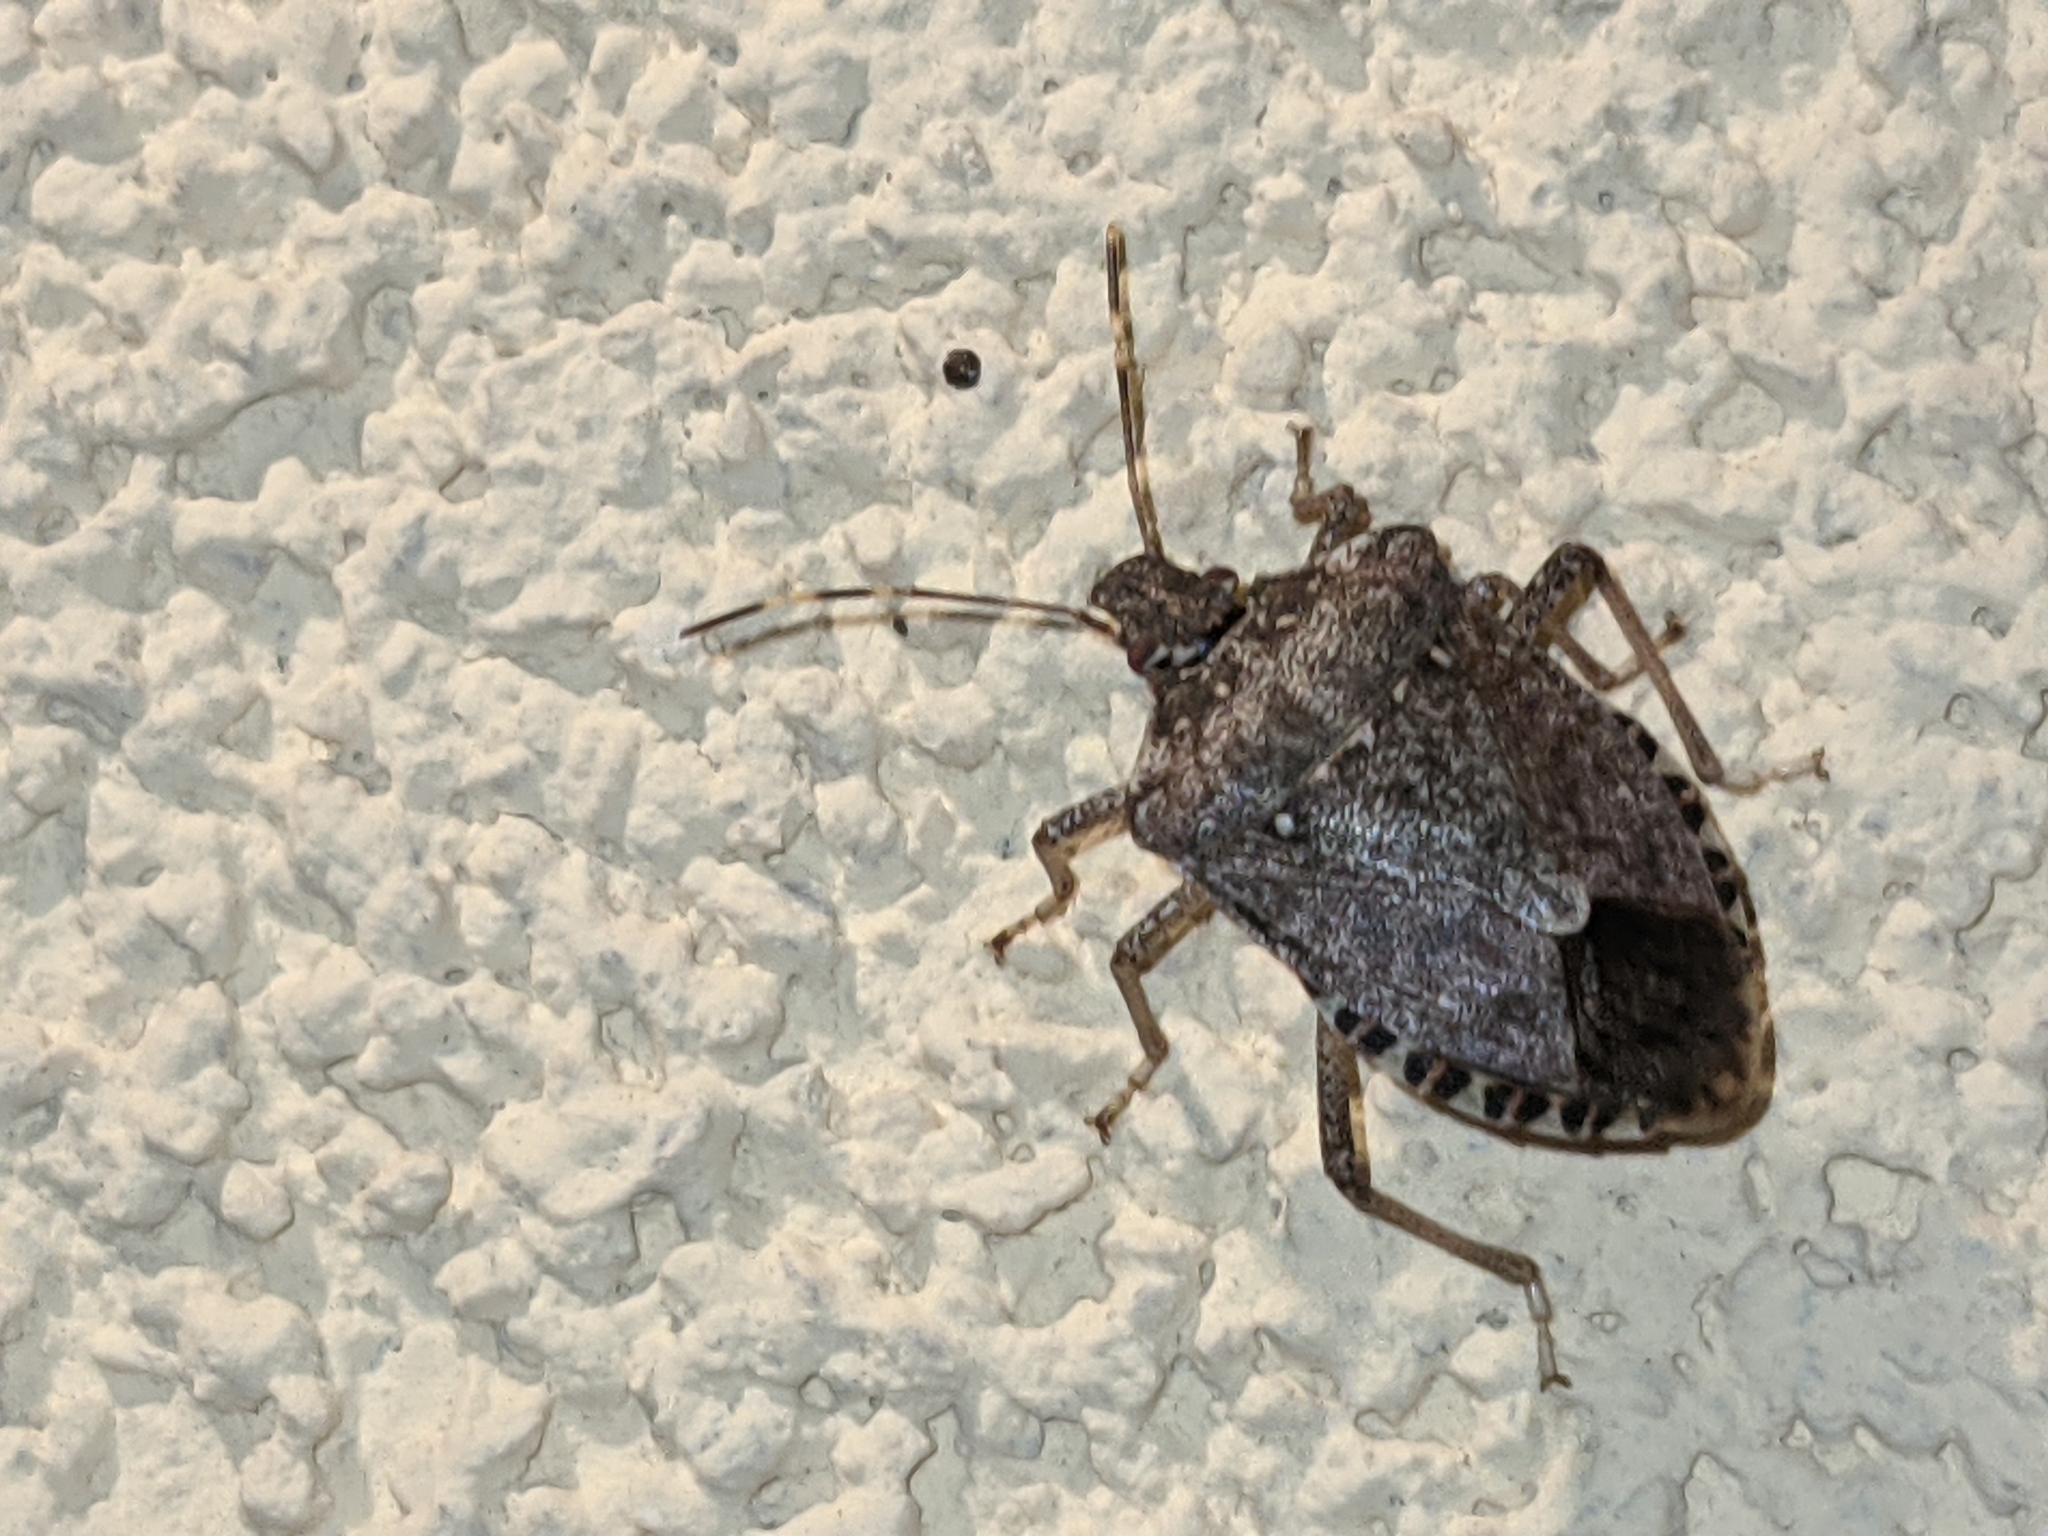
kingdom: Animalia
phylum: Arthropoda
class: Insecta
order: Hemiptera
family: Pentatomidae
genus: Halyomorpha
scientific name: Halyomorpha halys
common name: Brown marmorated stink bug
